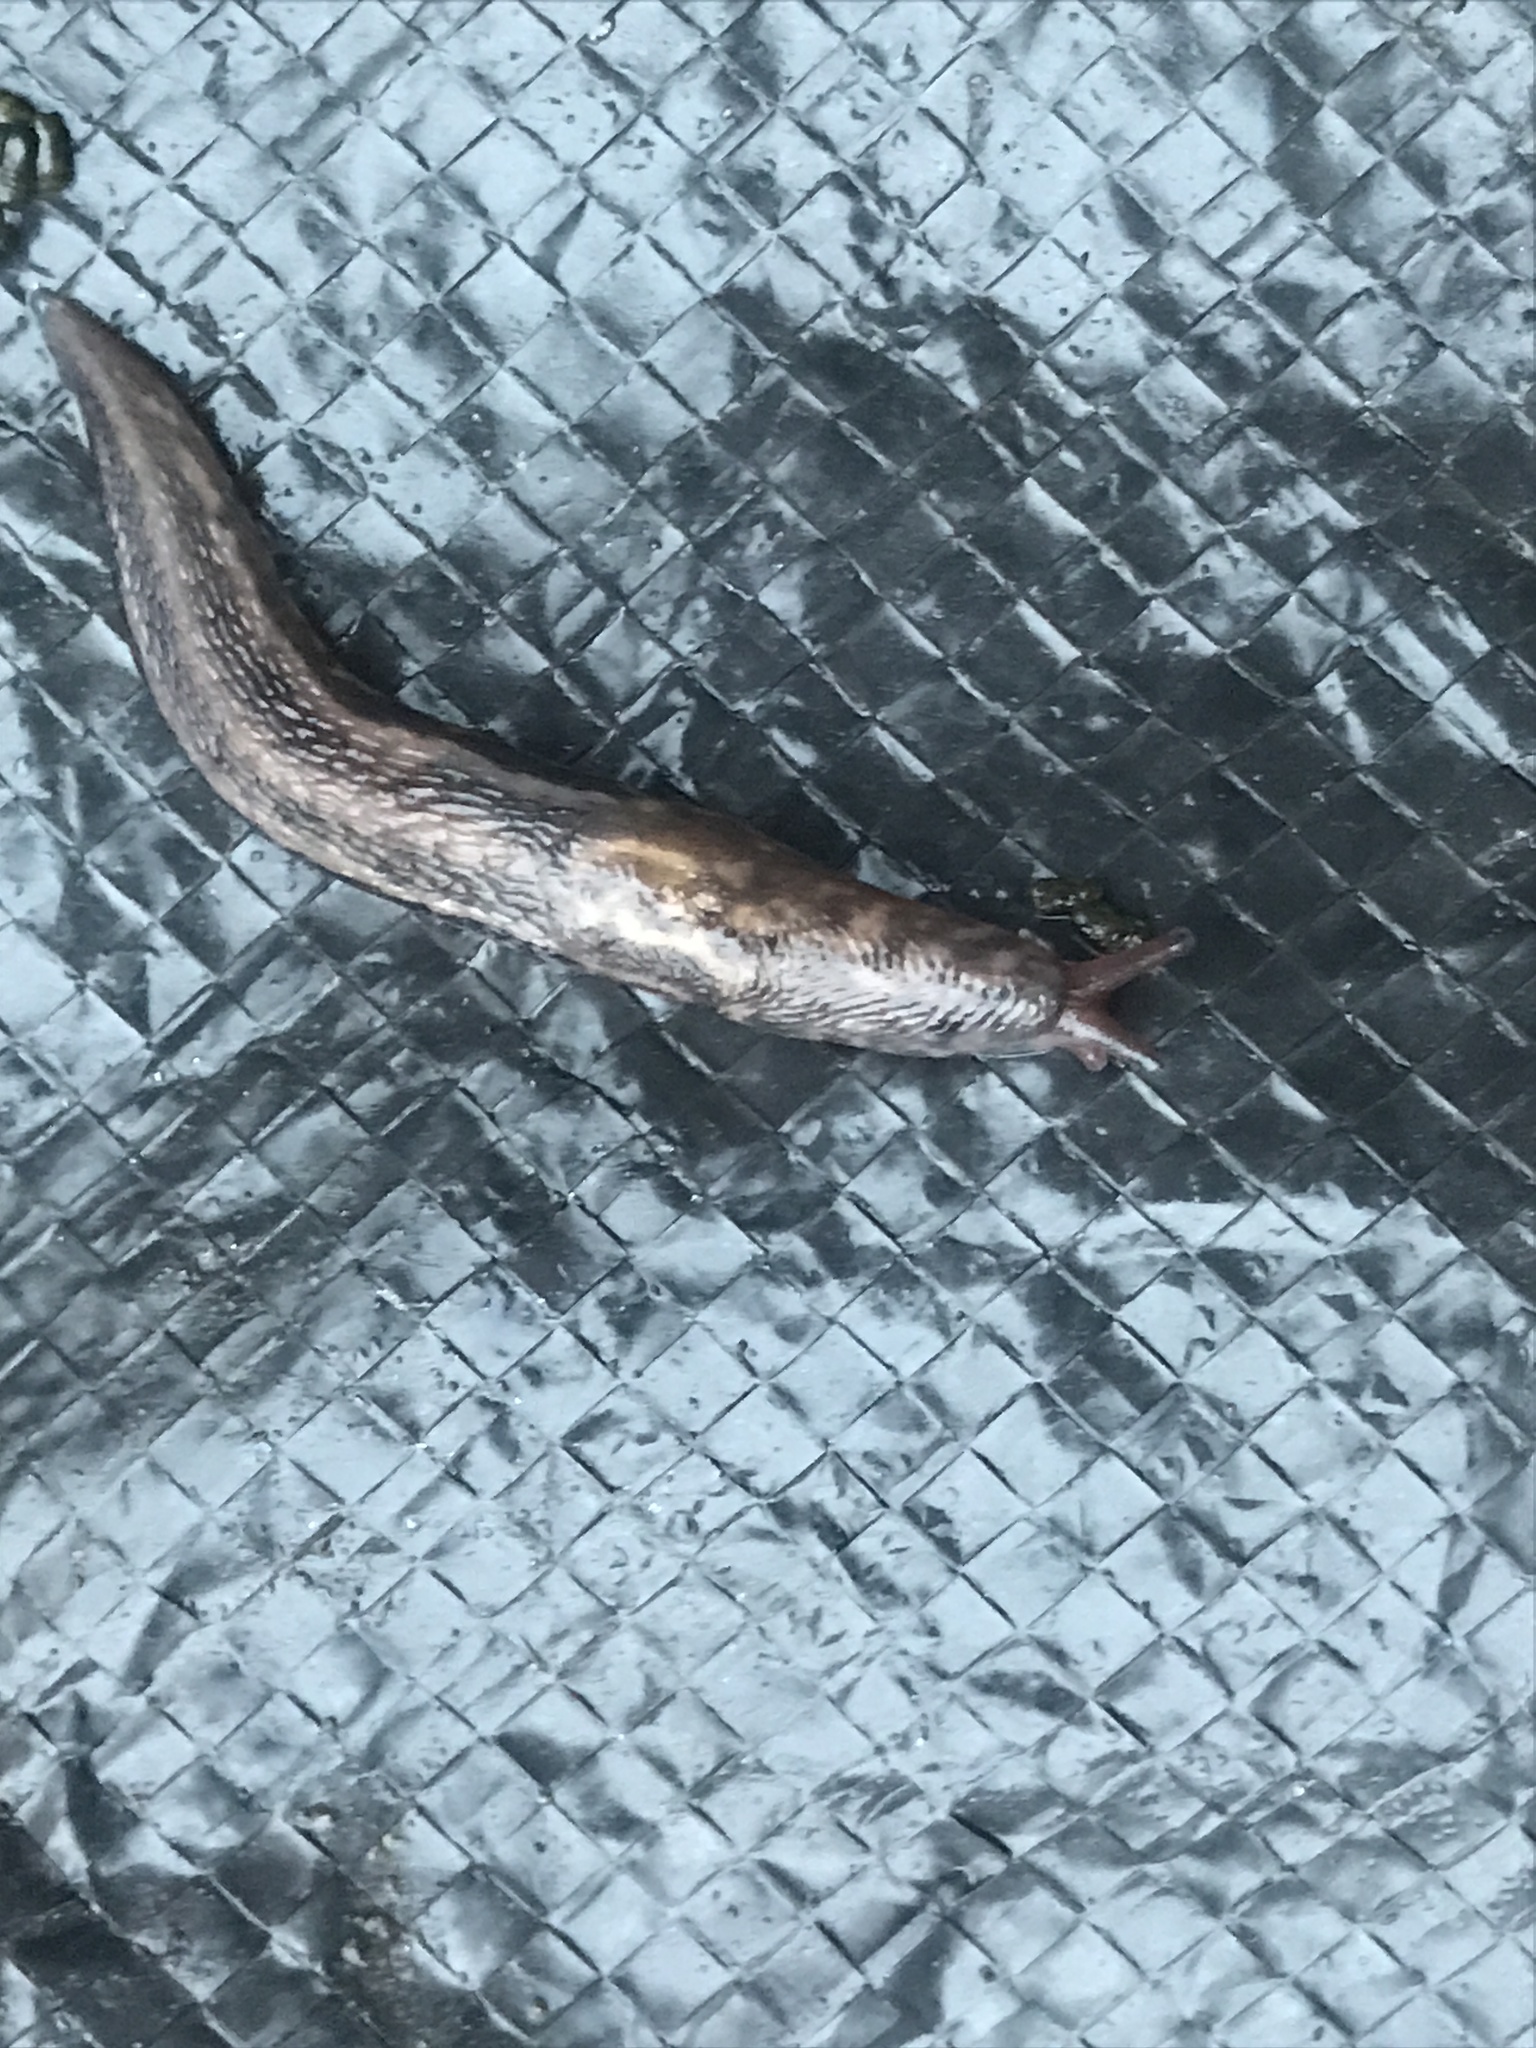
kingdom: Animalia
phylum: Mollusca
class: Gastropoda
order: Stylommatophora
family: Limacidae
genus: Limax
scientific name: Limax maximus
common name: Great grey slug
